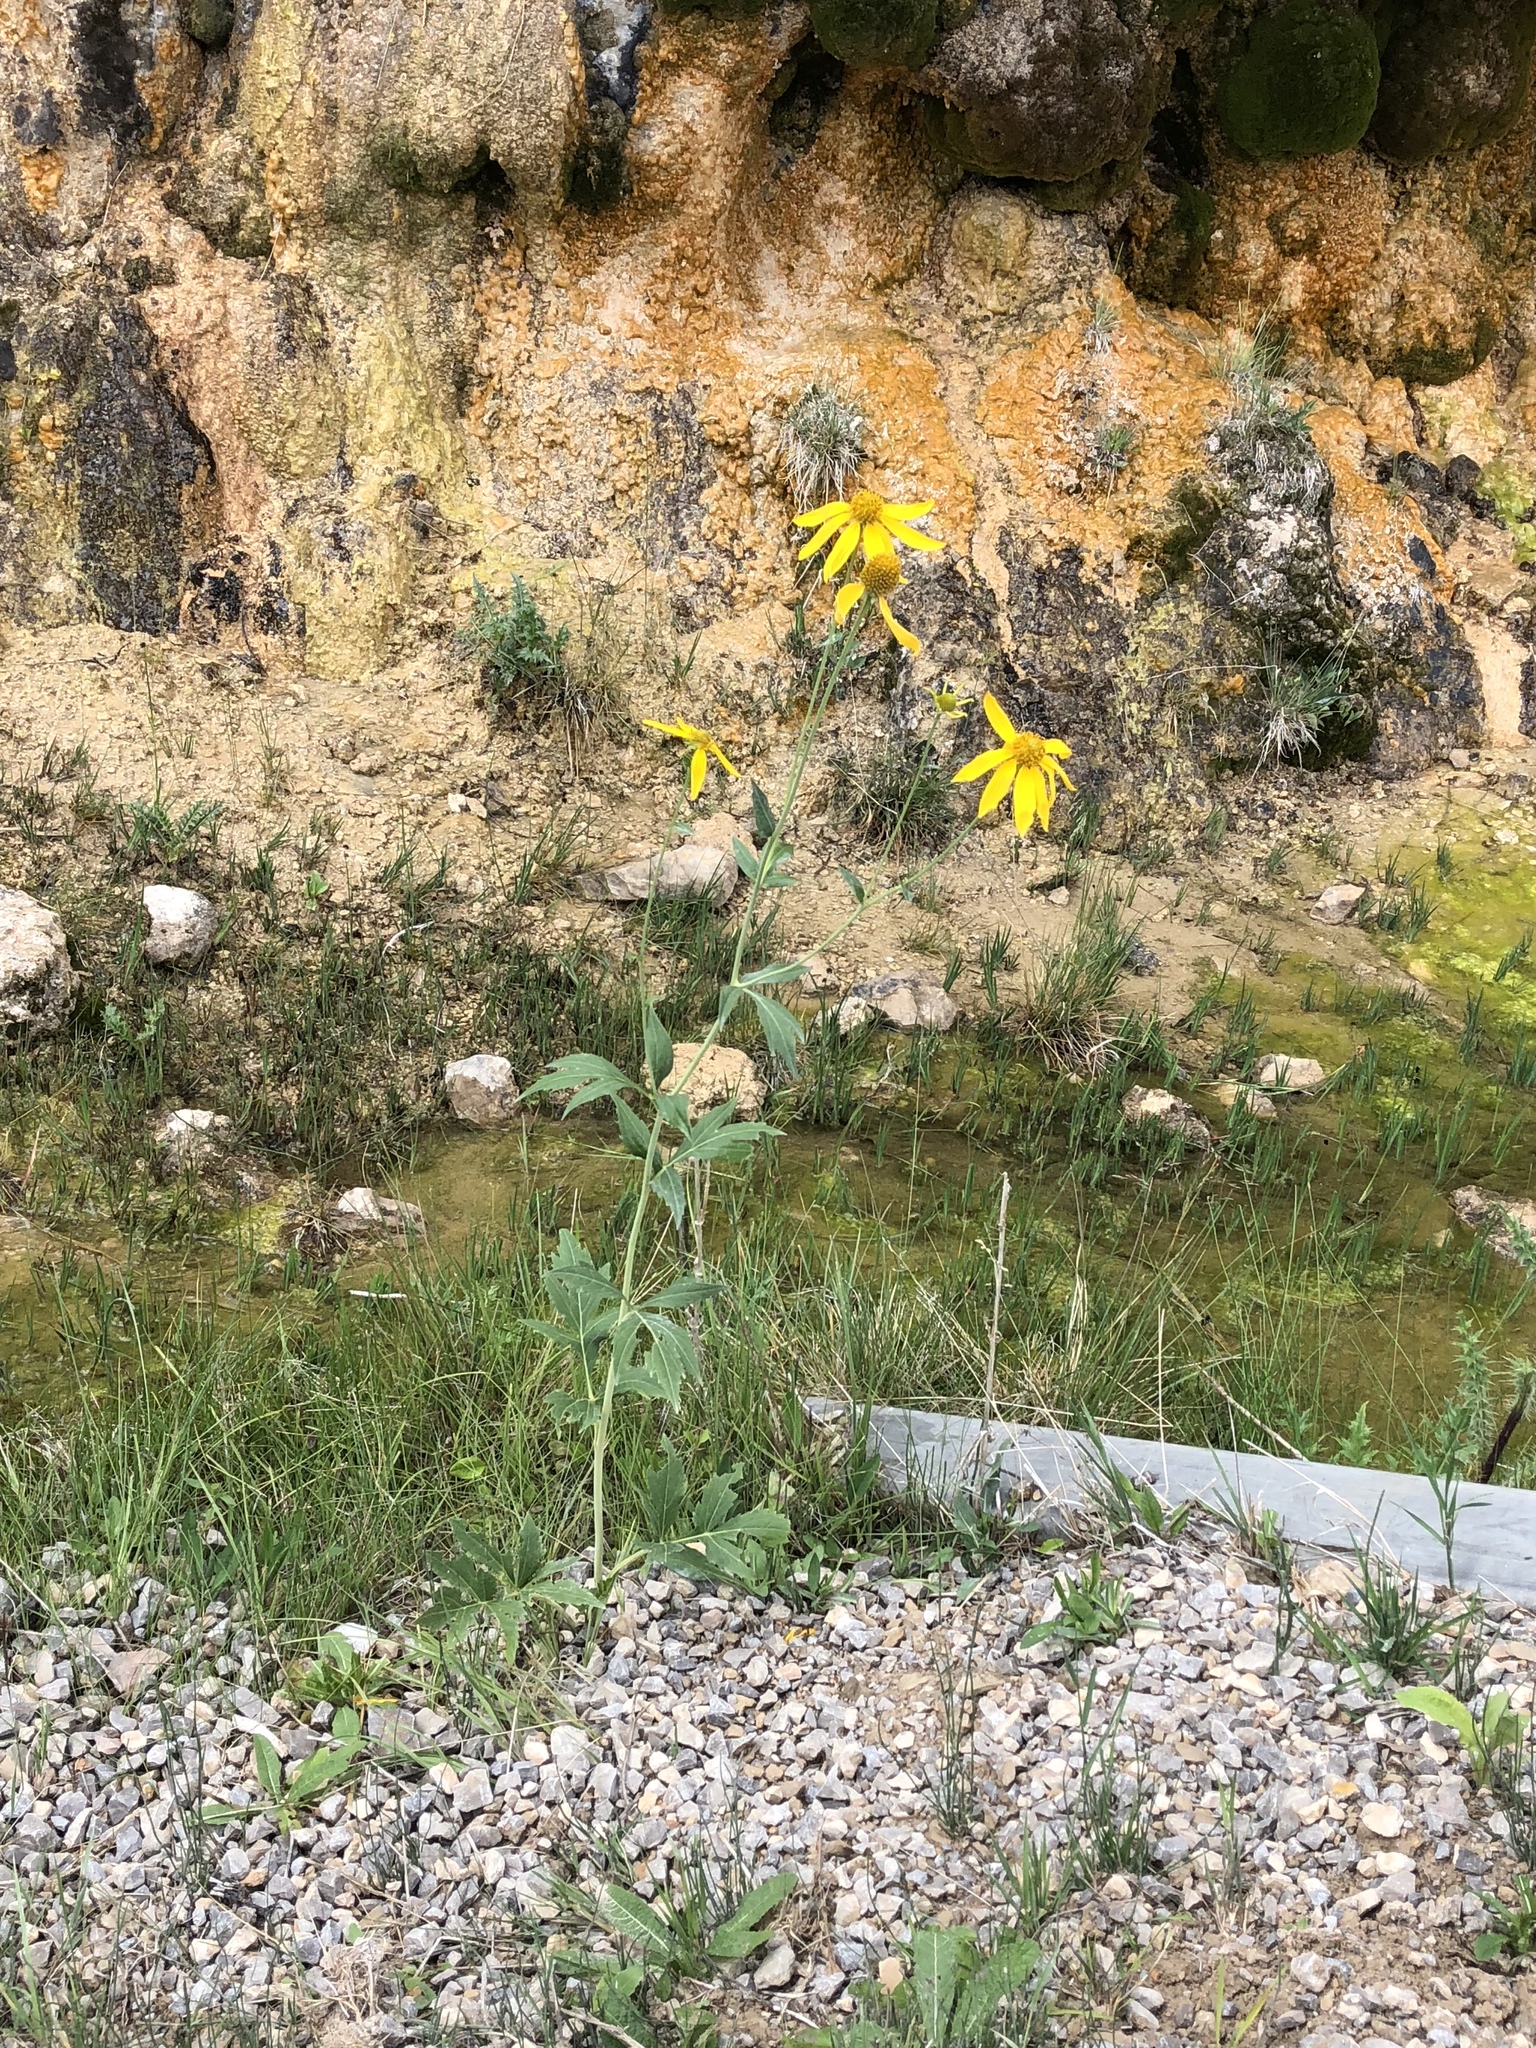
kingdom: Plantae
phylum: Tracheophyta
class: Magnoliopsida
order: Asterales
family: Asteraceae
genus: Rudbeckia
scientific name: Rudbeckia laciniata
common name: Coneflower
